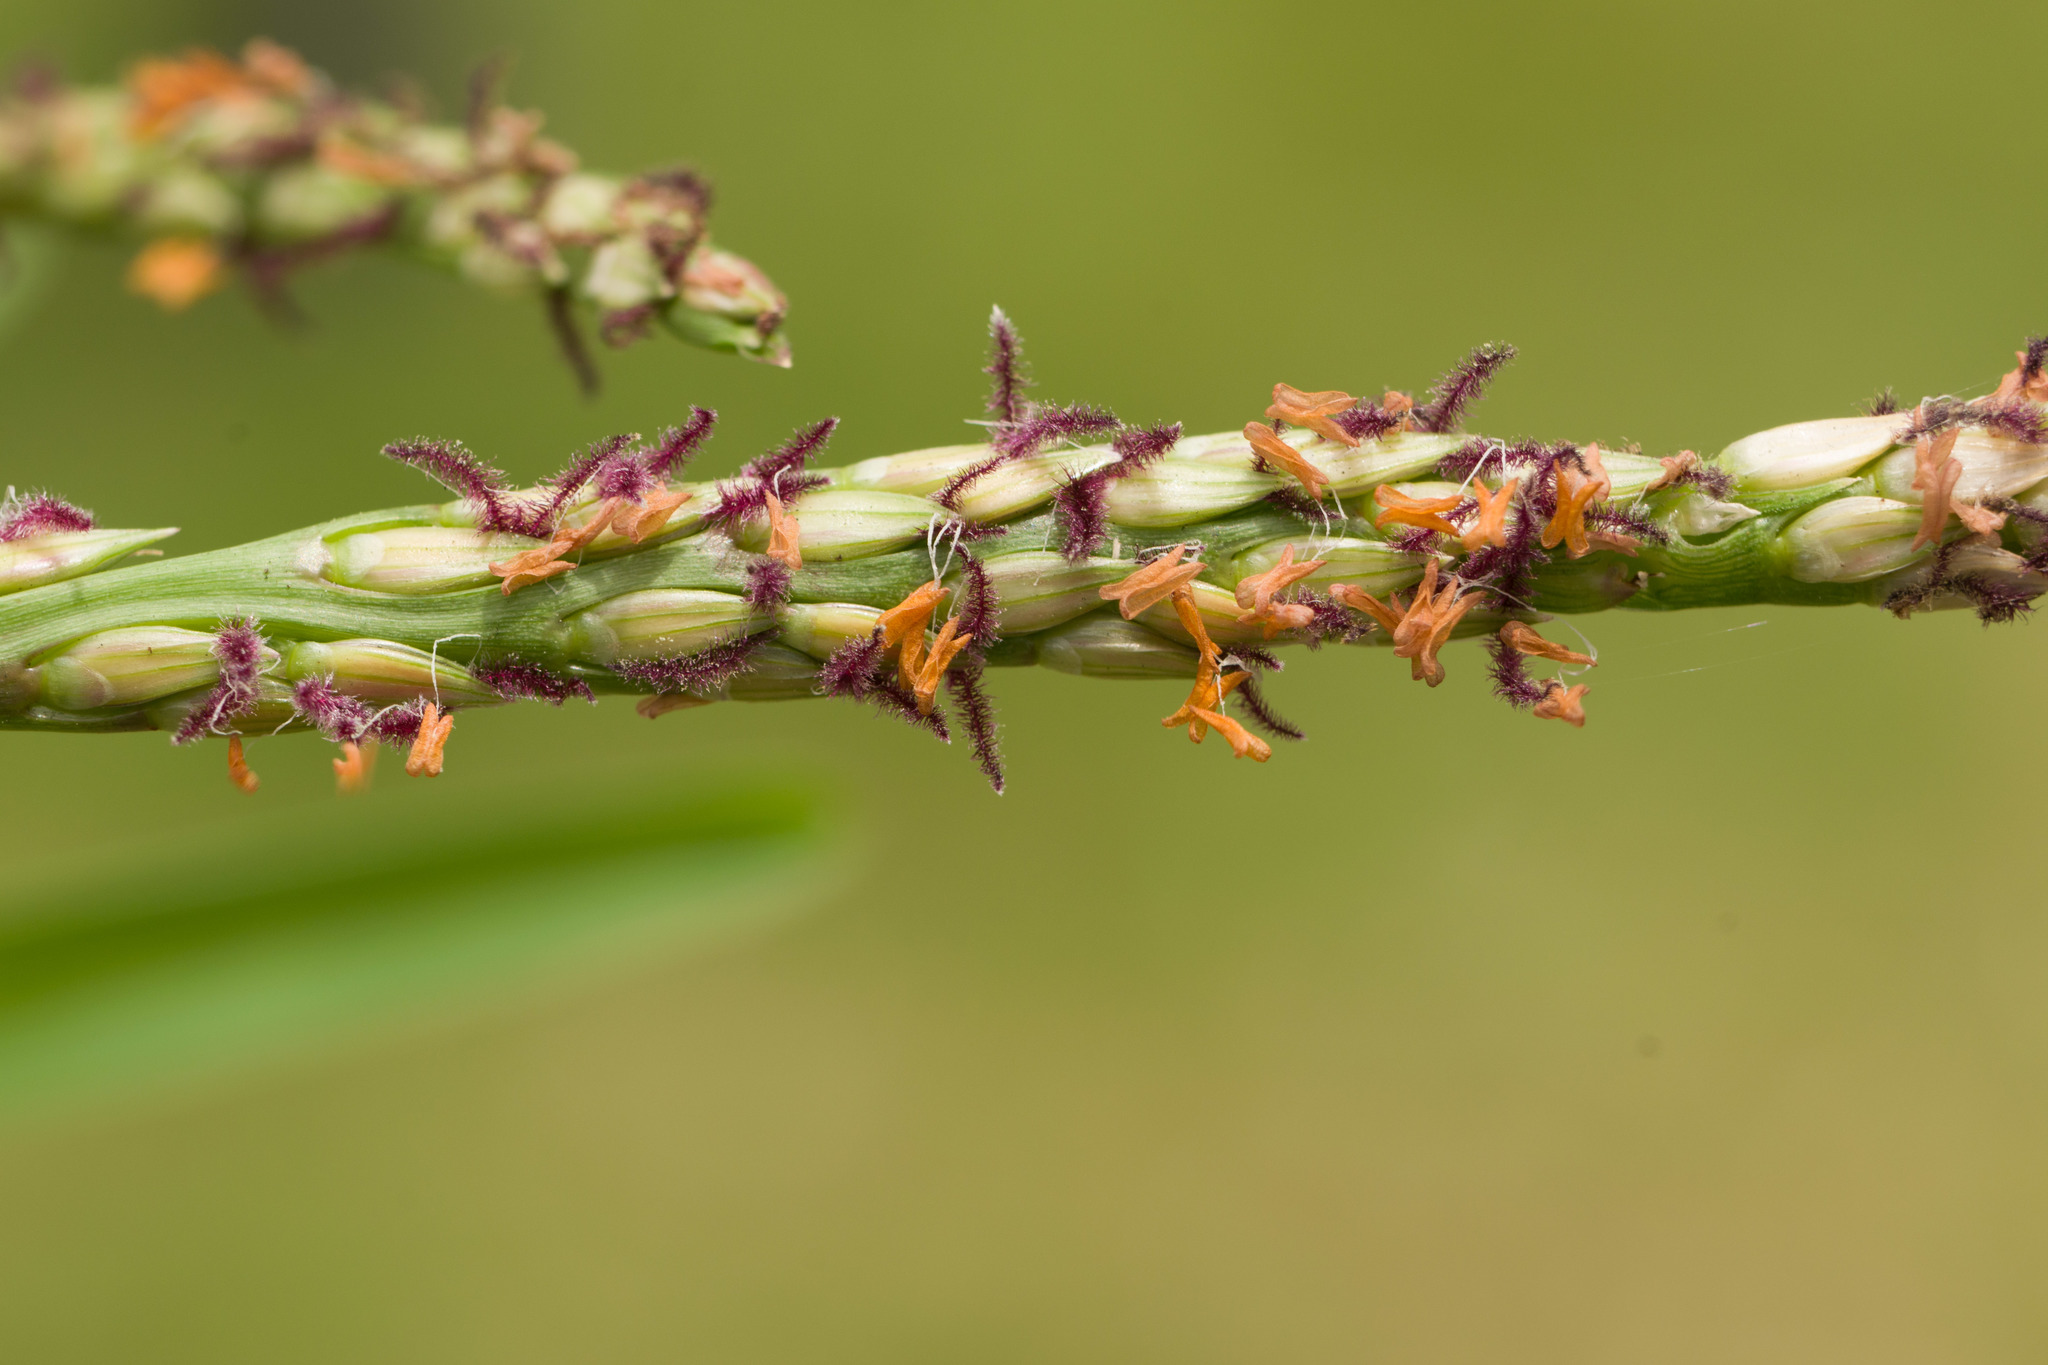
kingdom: Plantae
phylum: Tracheophyta
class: Liliopsida
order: Poales
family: Poaceae
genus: Stenotaphrum
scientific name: Stenotaphrum secundatum
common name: St. augustine grass
